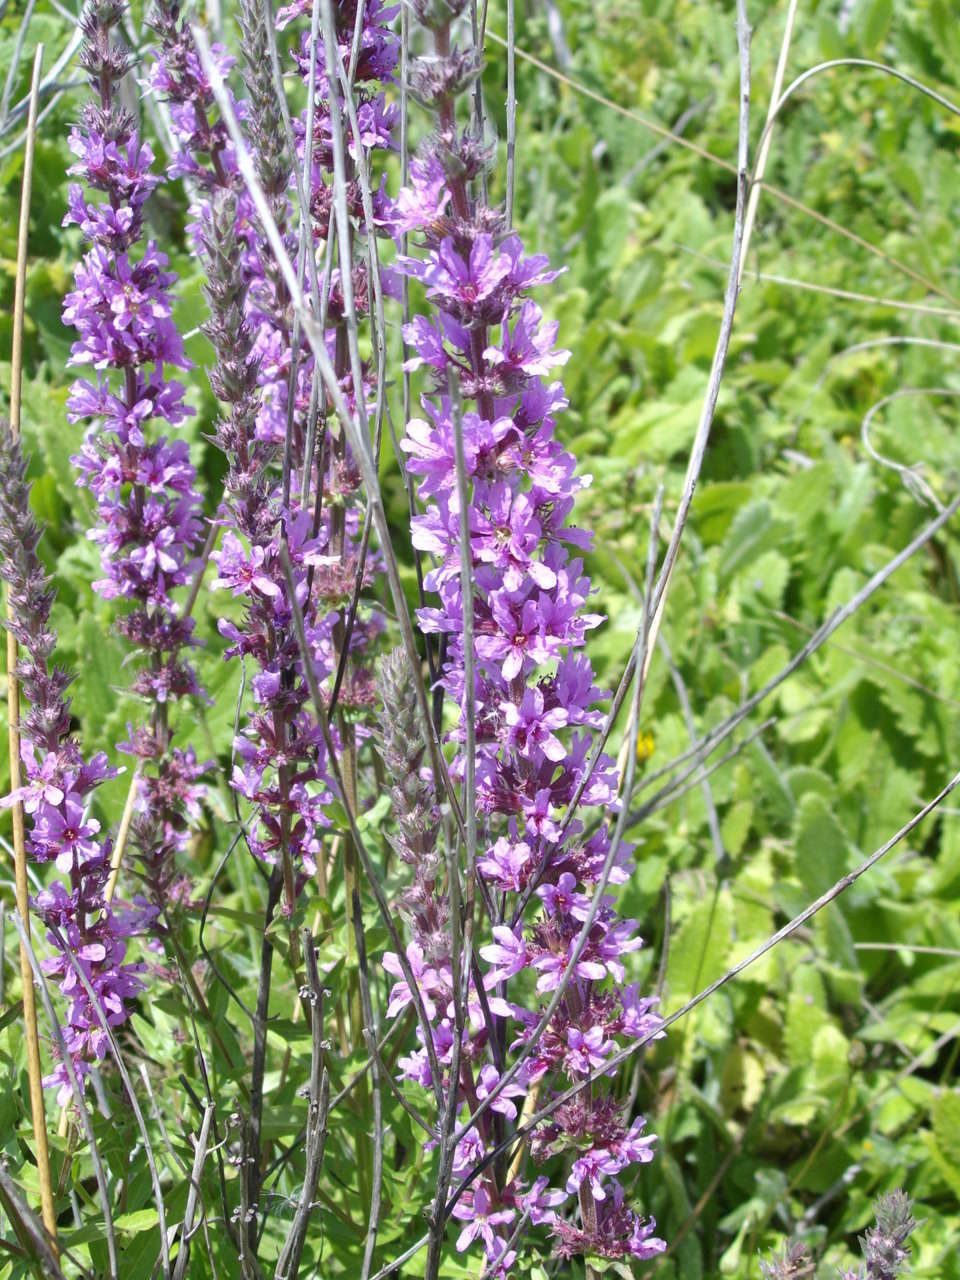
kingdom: Plantae
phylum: Tracheophyta
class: Magnoliopsida
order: Myrtales
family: Lythraceae
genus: Lythrum
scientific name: Lythrum salicaria
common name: Purple loosestrife
